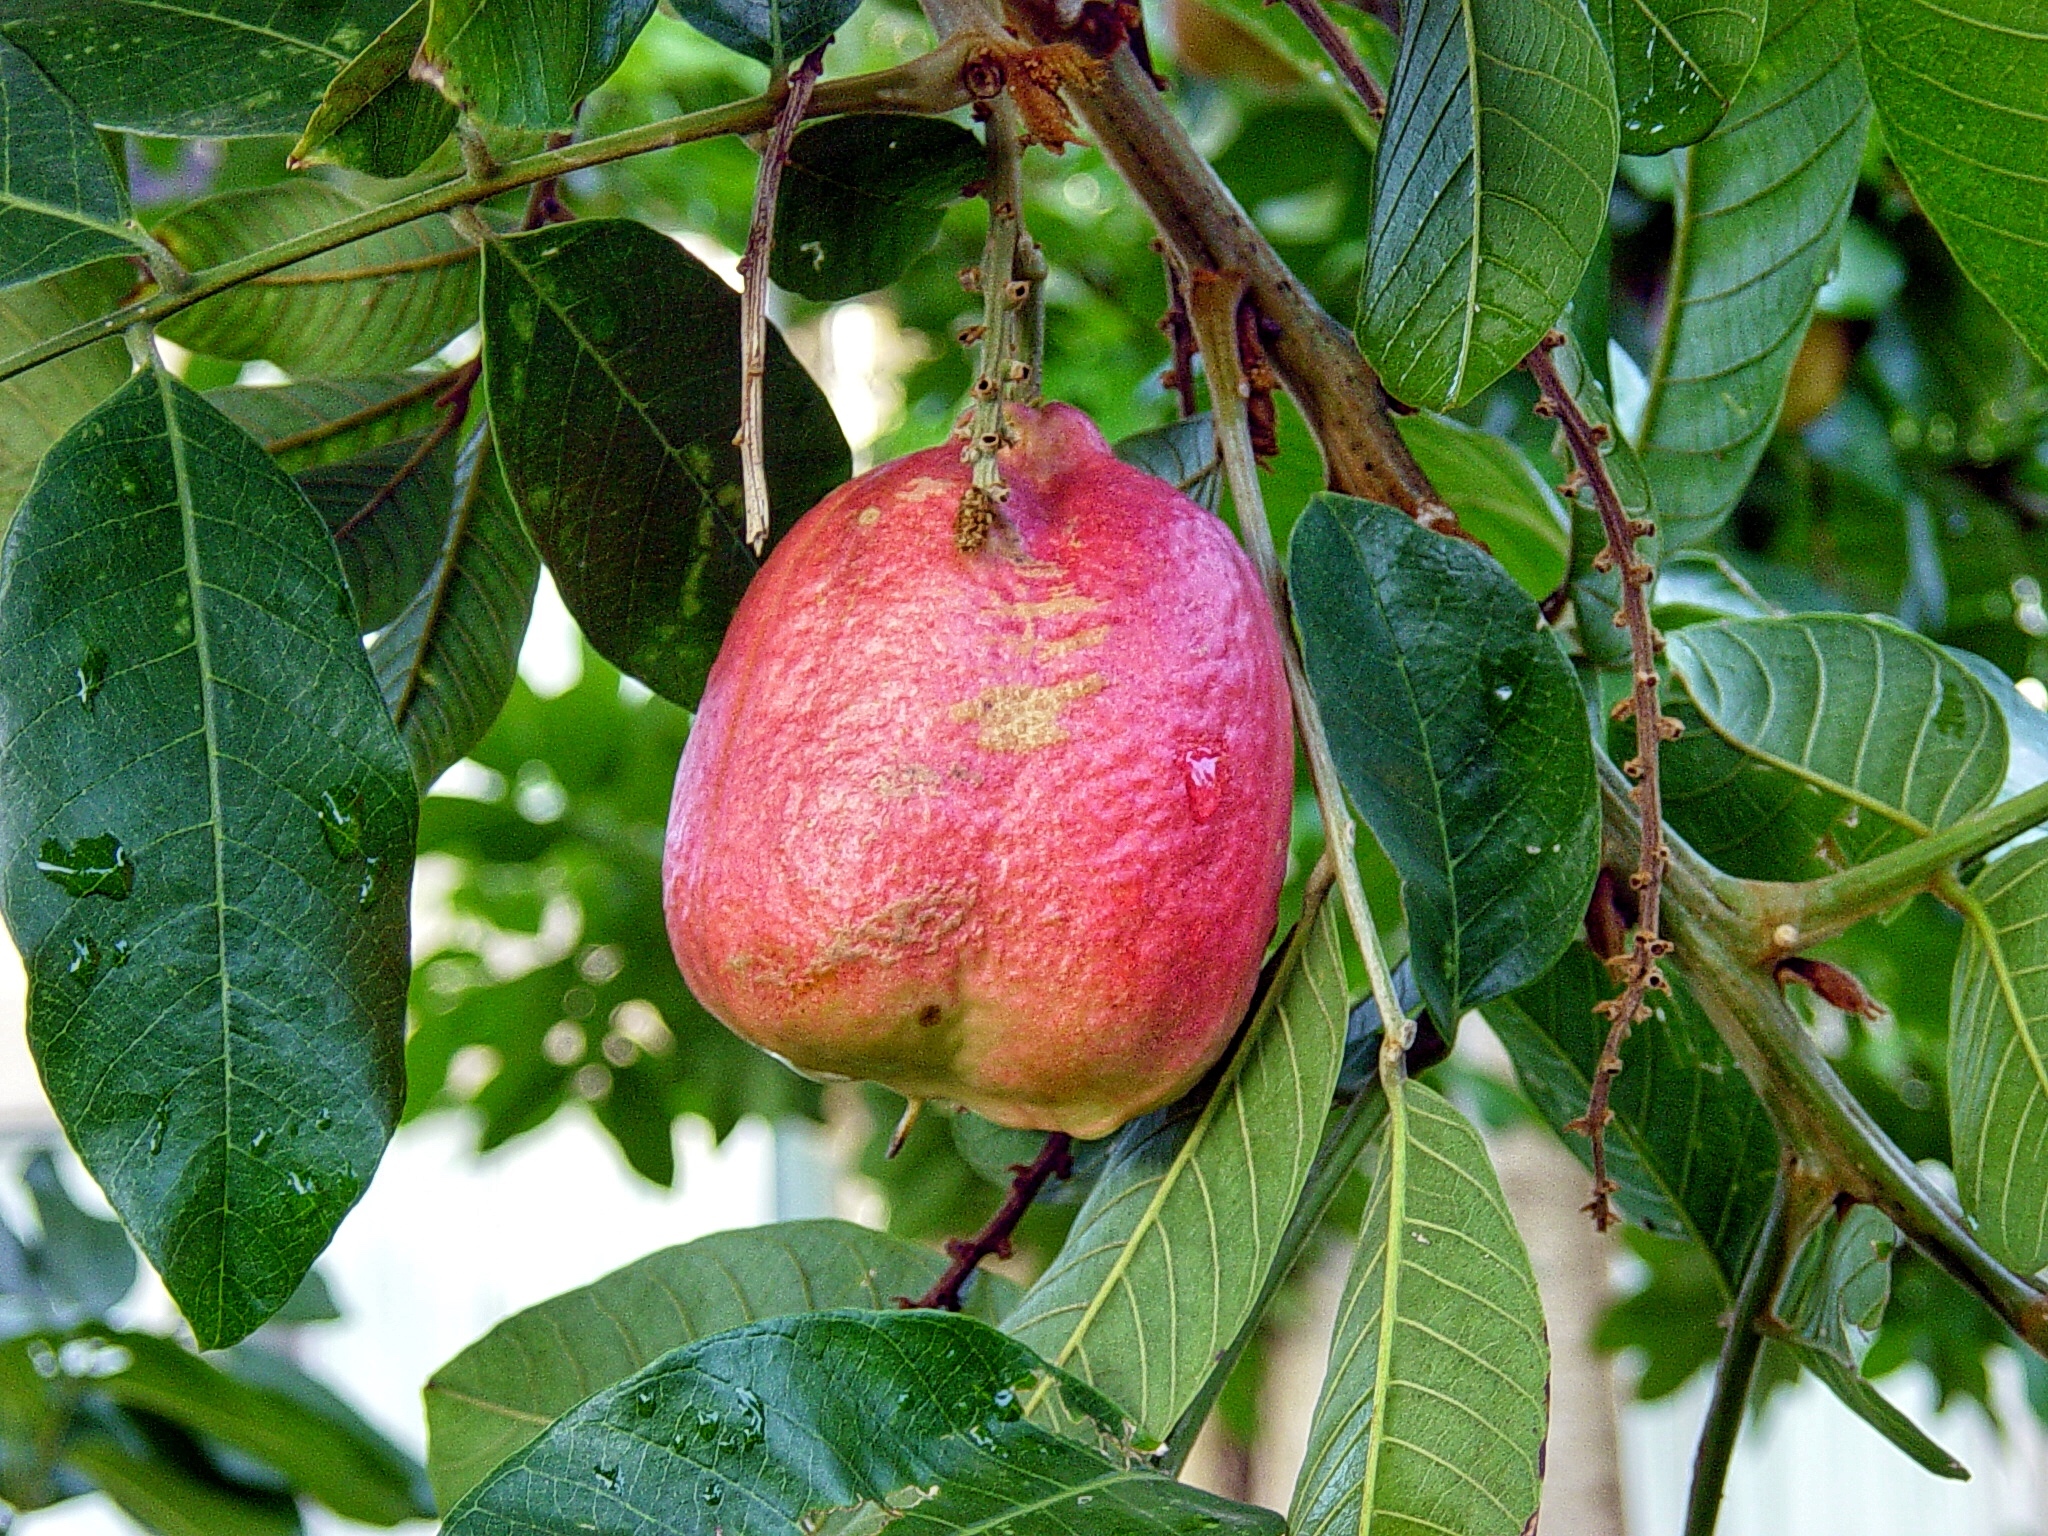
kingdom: Plantae
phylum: Tracheophyta
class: Magnoliopsida
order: Sapindales
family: Sapindaceae
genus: Blighia
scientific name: Blighia sapida
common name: Akee
